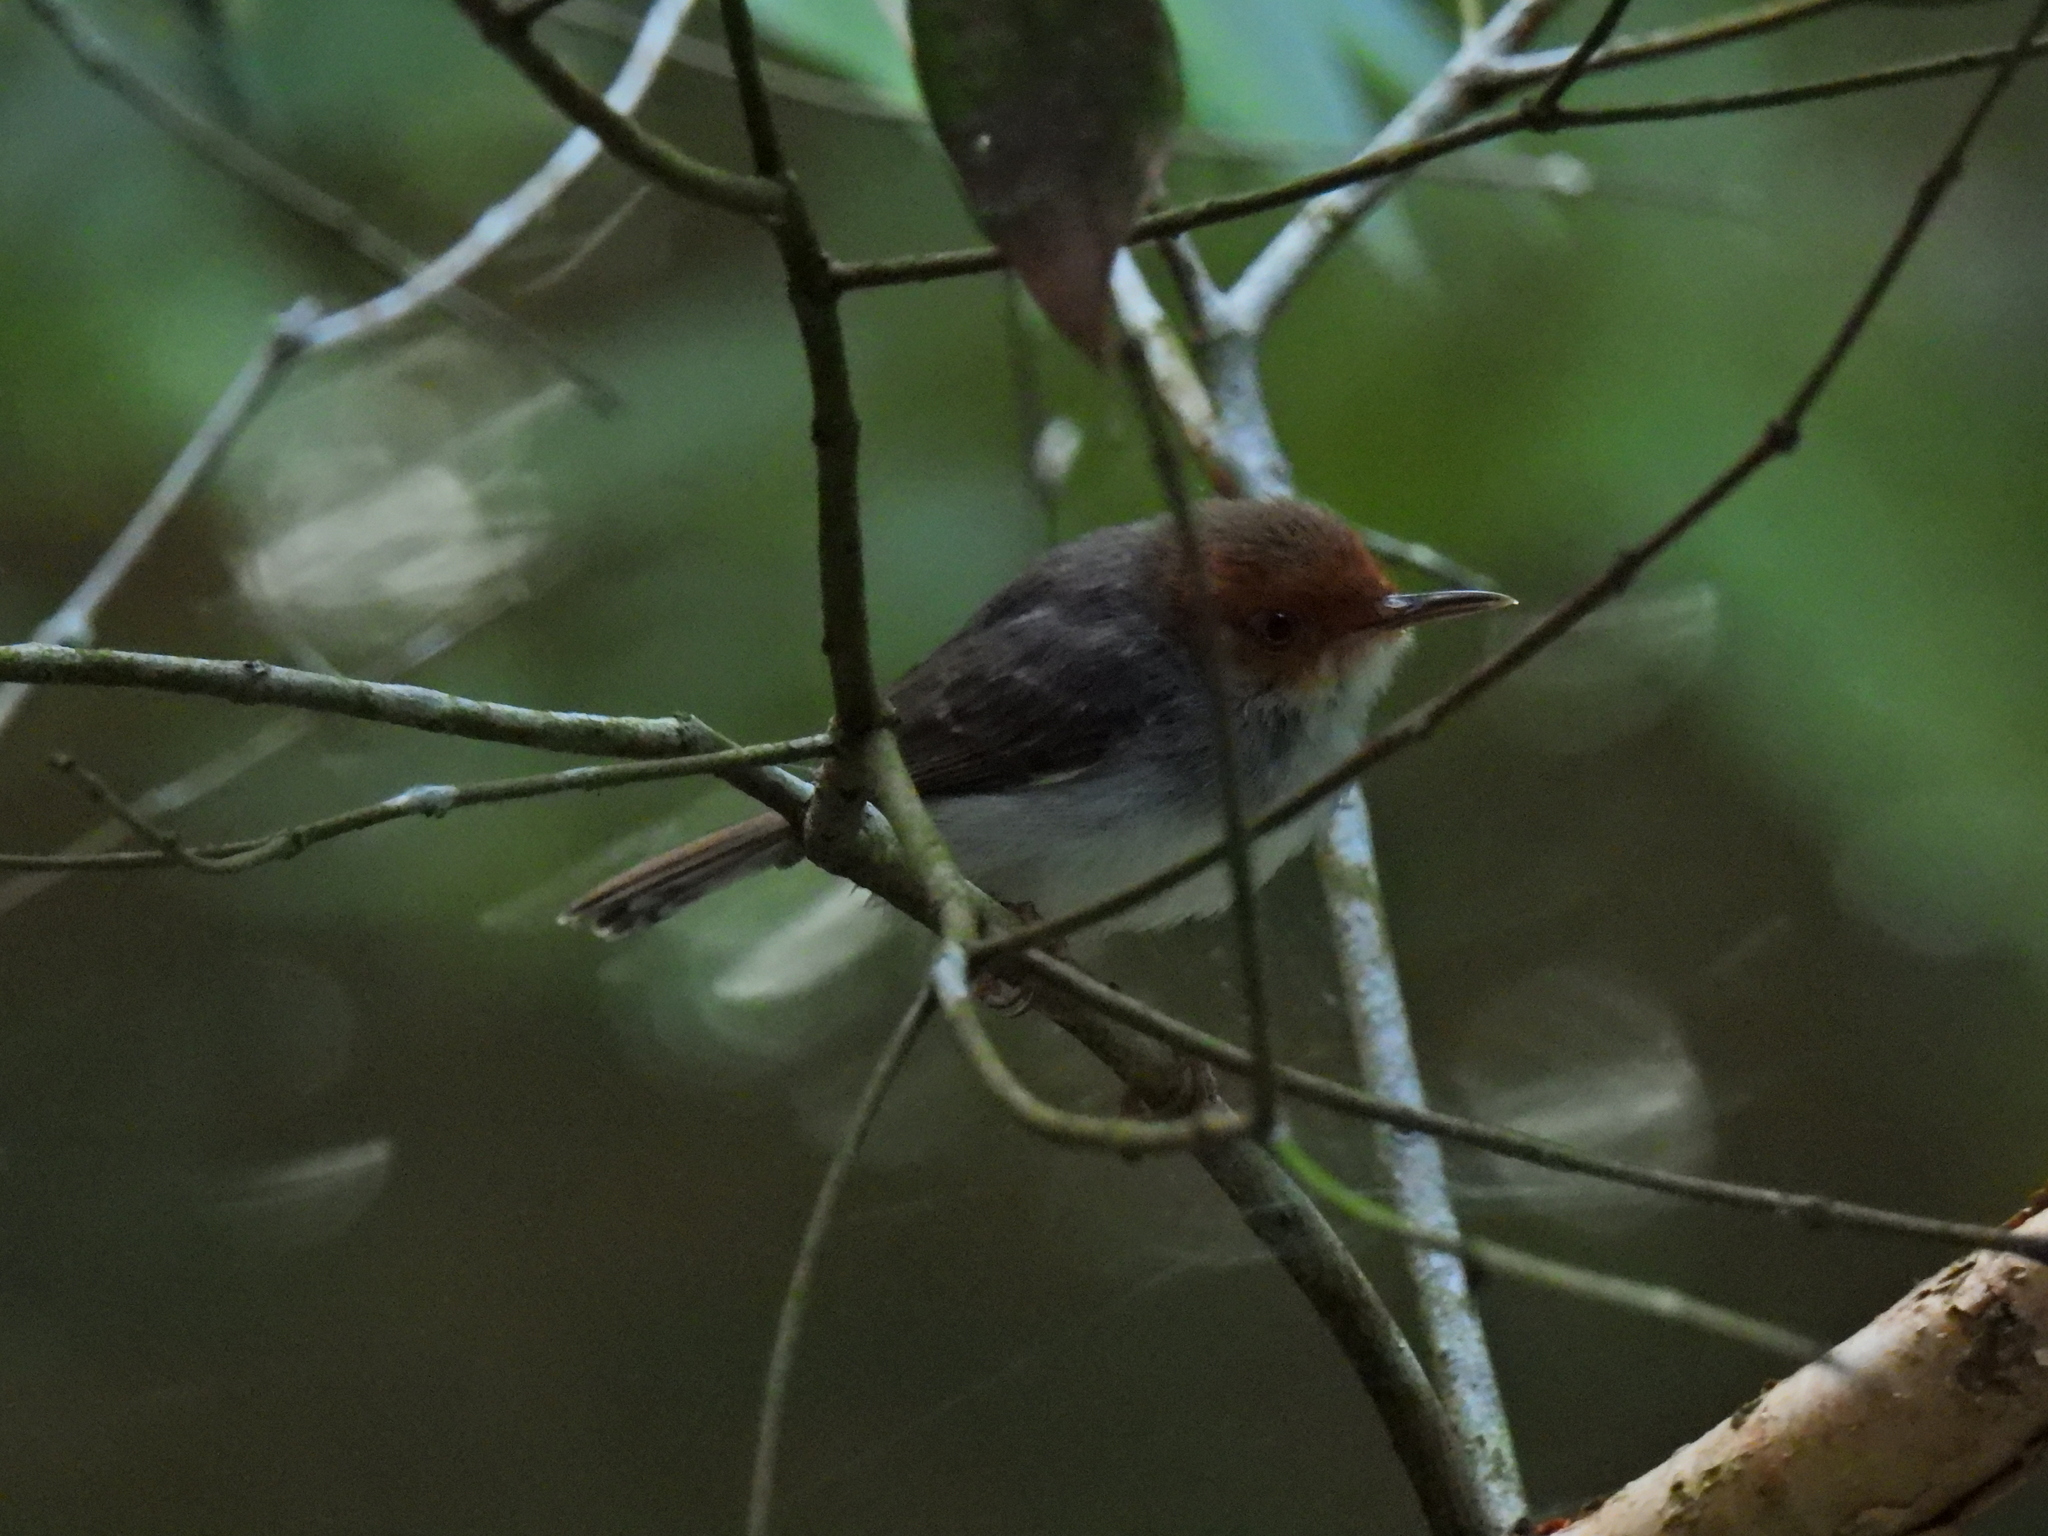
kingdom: Animalia
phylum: Chordata
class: Aves
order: Passeriformes
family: Cisticolidae
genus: Orthotomus
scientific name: Orthotomus ruficeps
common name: Ashy tailorbird
